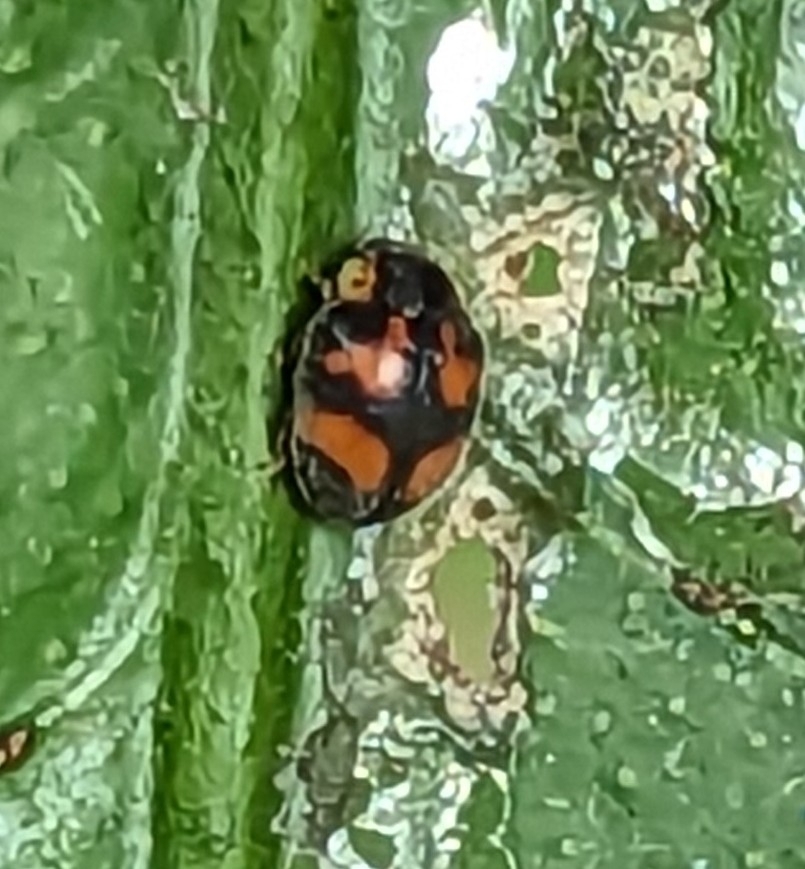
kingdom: Animalia
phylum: Arthropoda
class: Insecta
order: Coleoptera
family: Coccinellidae
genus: Diomus
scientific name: Diomus
